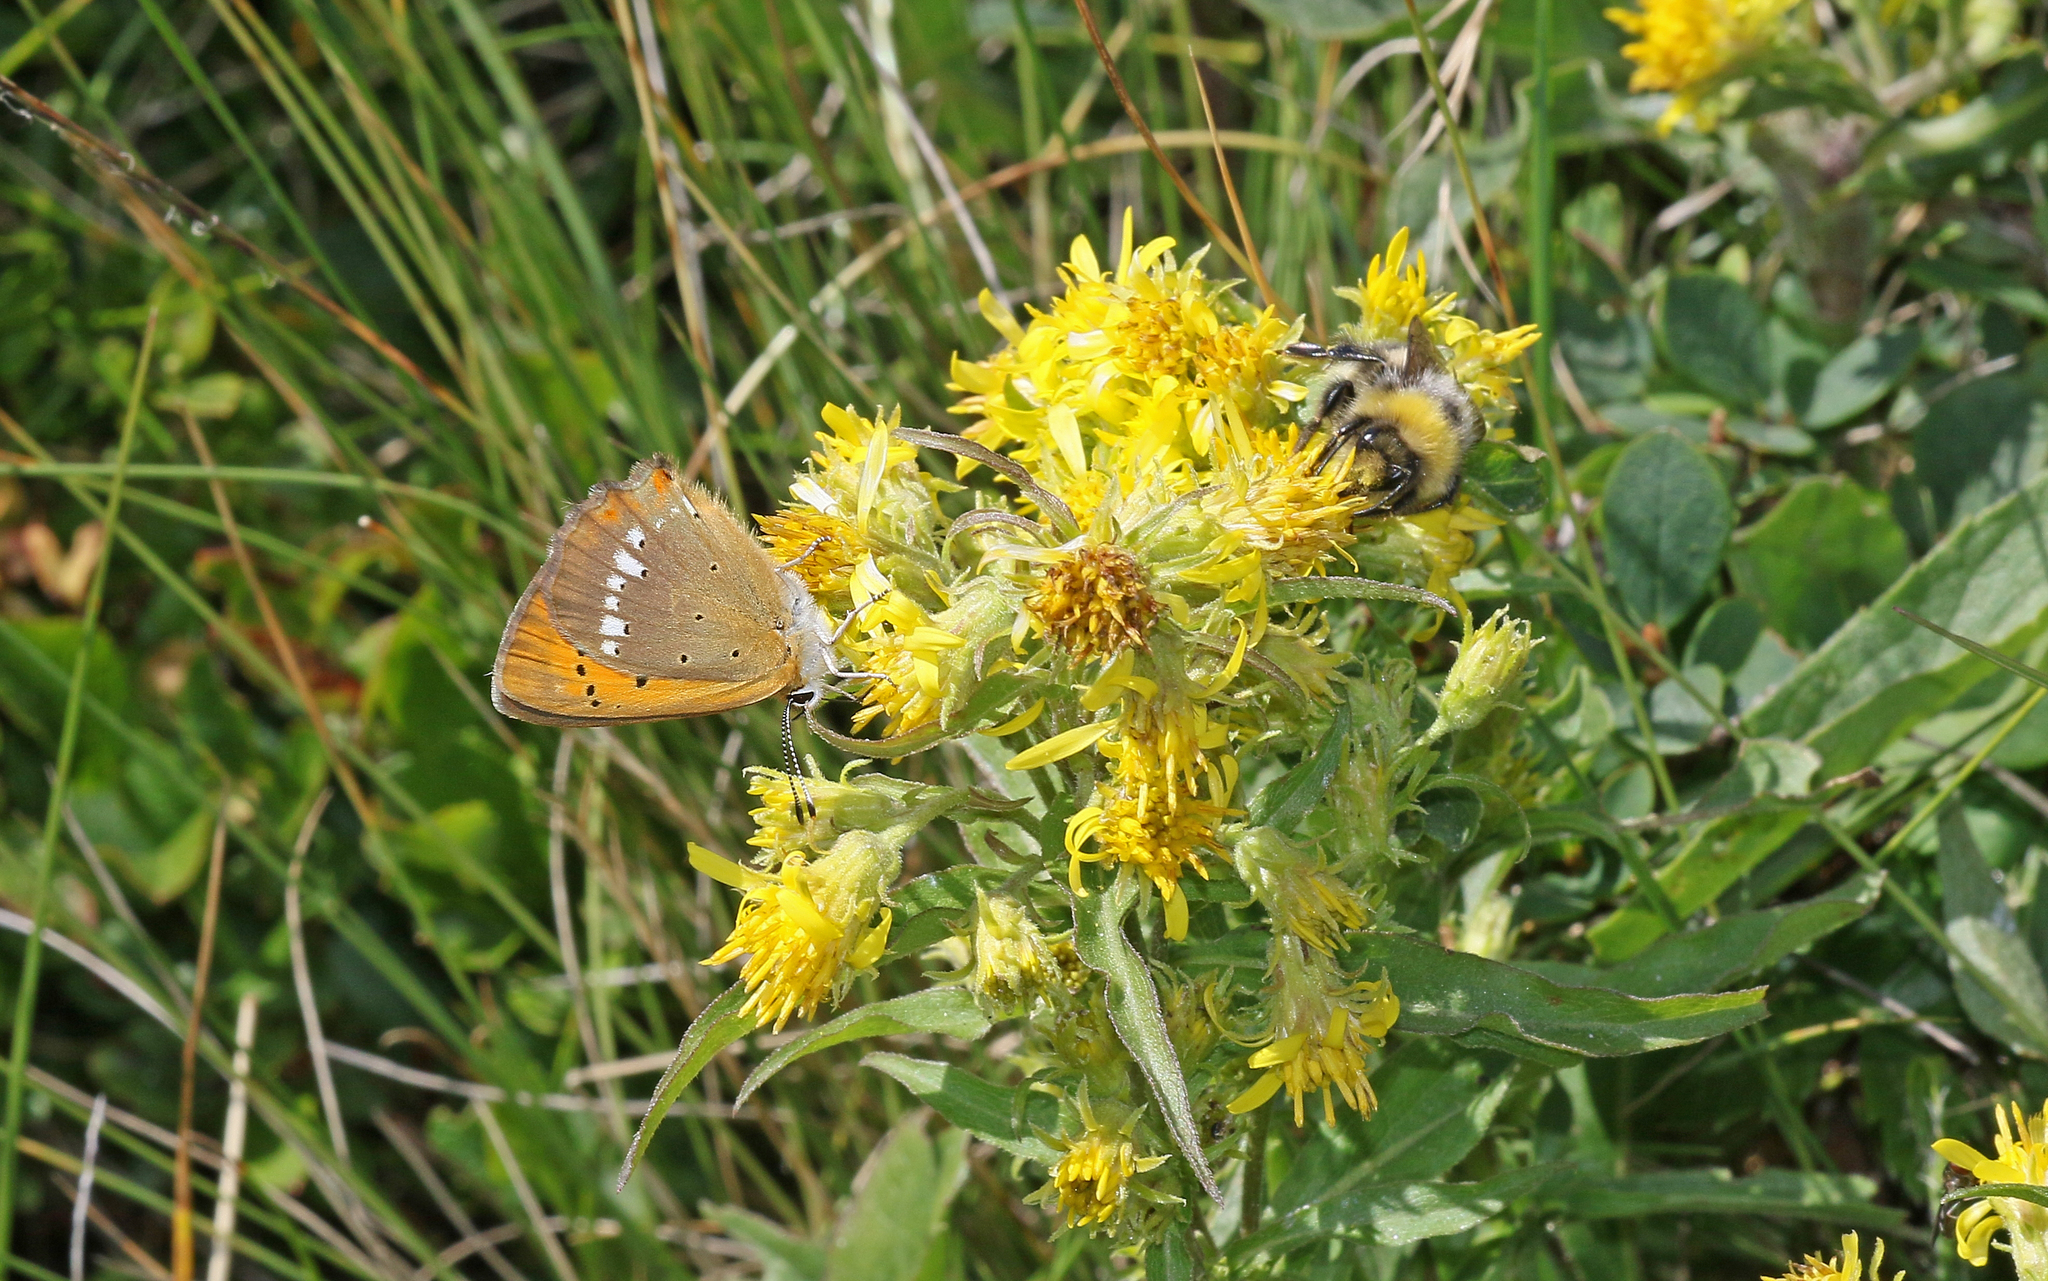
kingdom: Animalia
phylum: Arthropoda
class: Insecta
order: Lepidoptera
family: Lycaenidae
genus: Lycaena
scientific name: Lycaena virgaureae
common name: Scarce copper
